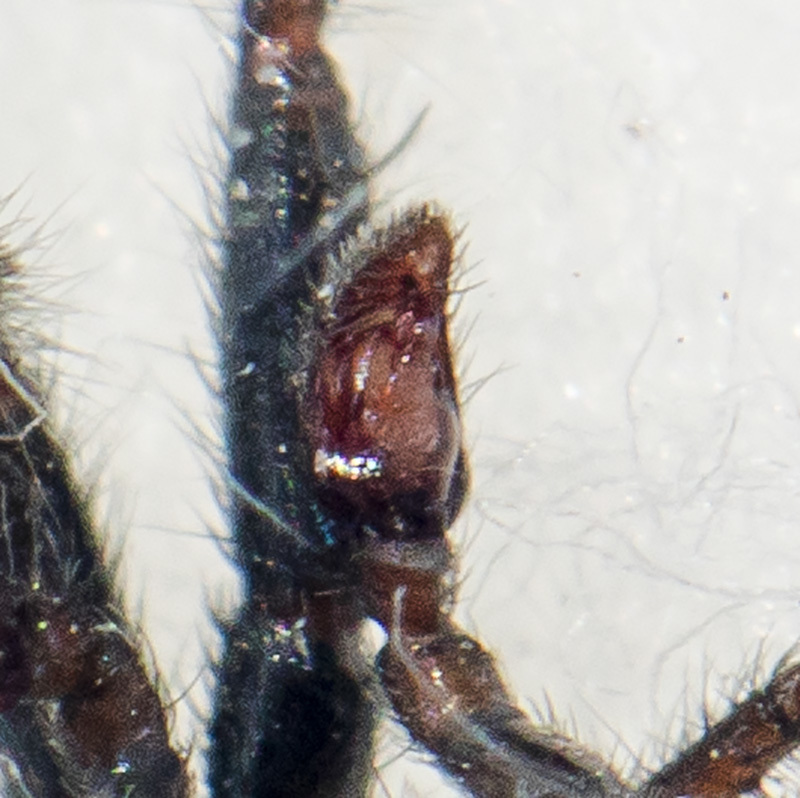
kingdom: Animalia
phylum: Arthropoda
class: Arachnida
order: Araneae
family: Gnaphosidae
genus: Gnaphosa
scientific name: Gnaphosa licenti
